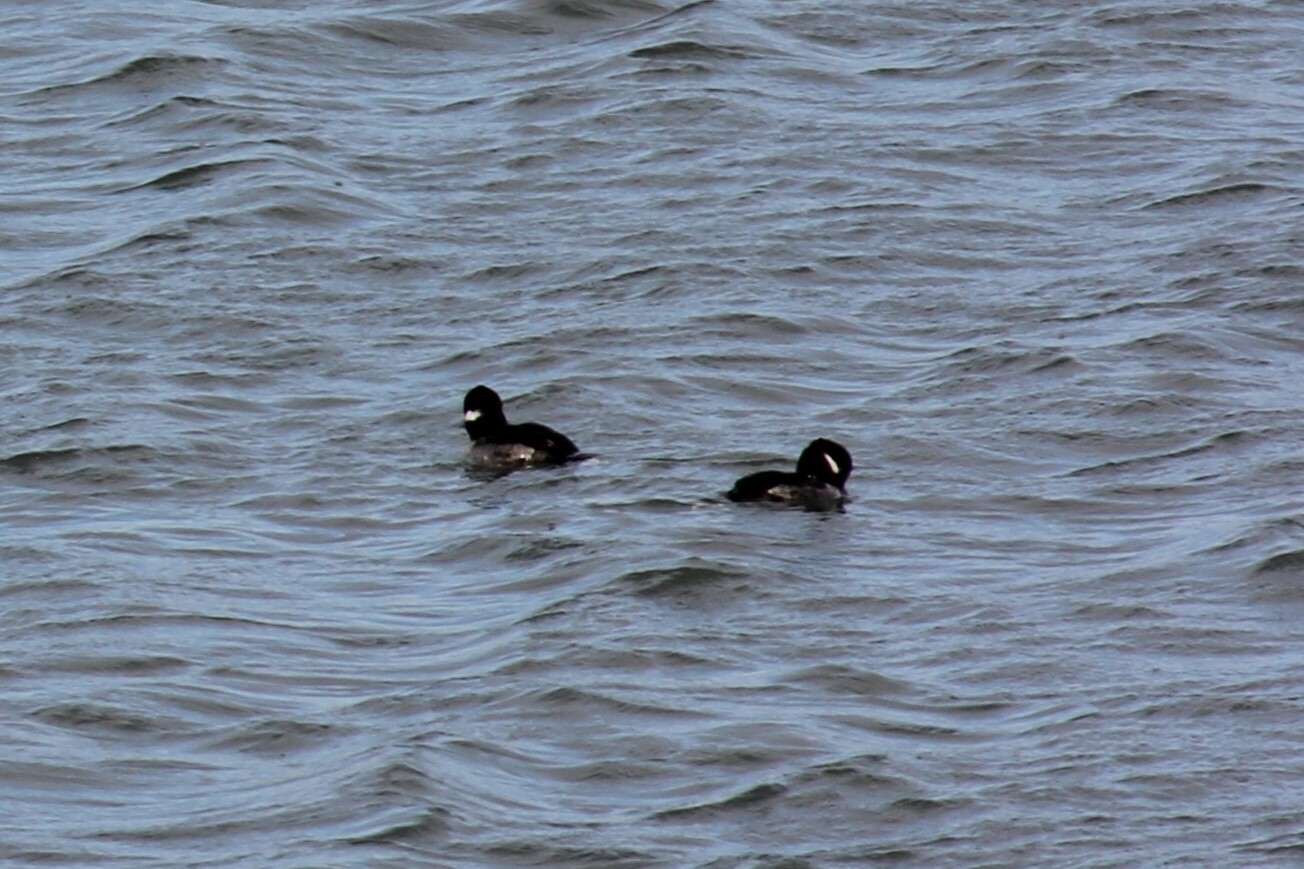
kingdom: Animalia
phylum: Chordata
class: Aves
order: Anseriformes
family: Anatidae
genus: Bucephala
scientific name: Bucephala albeola
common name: Bufflehead
